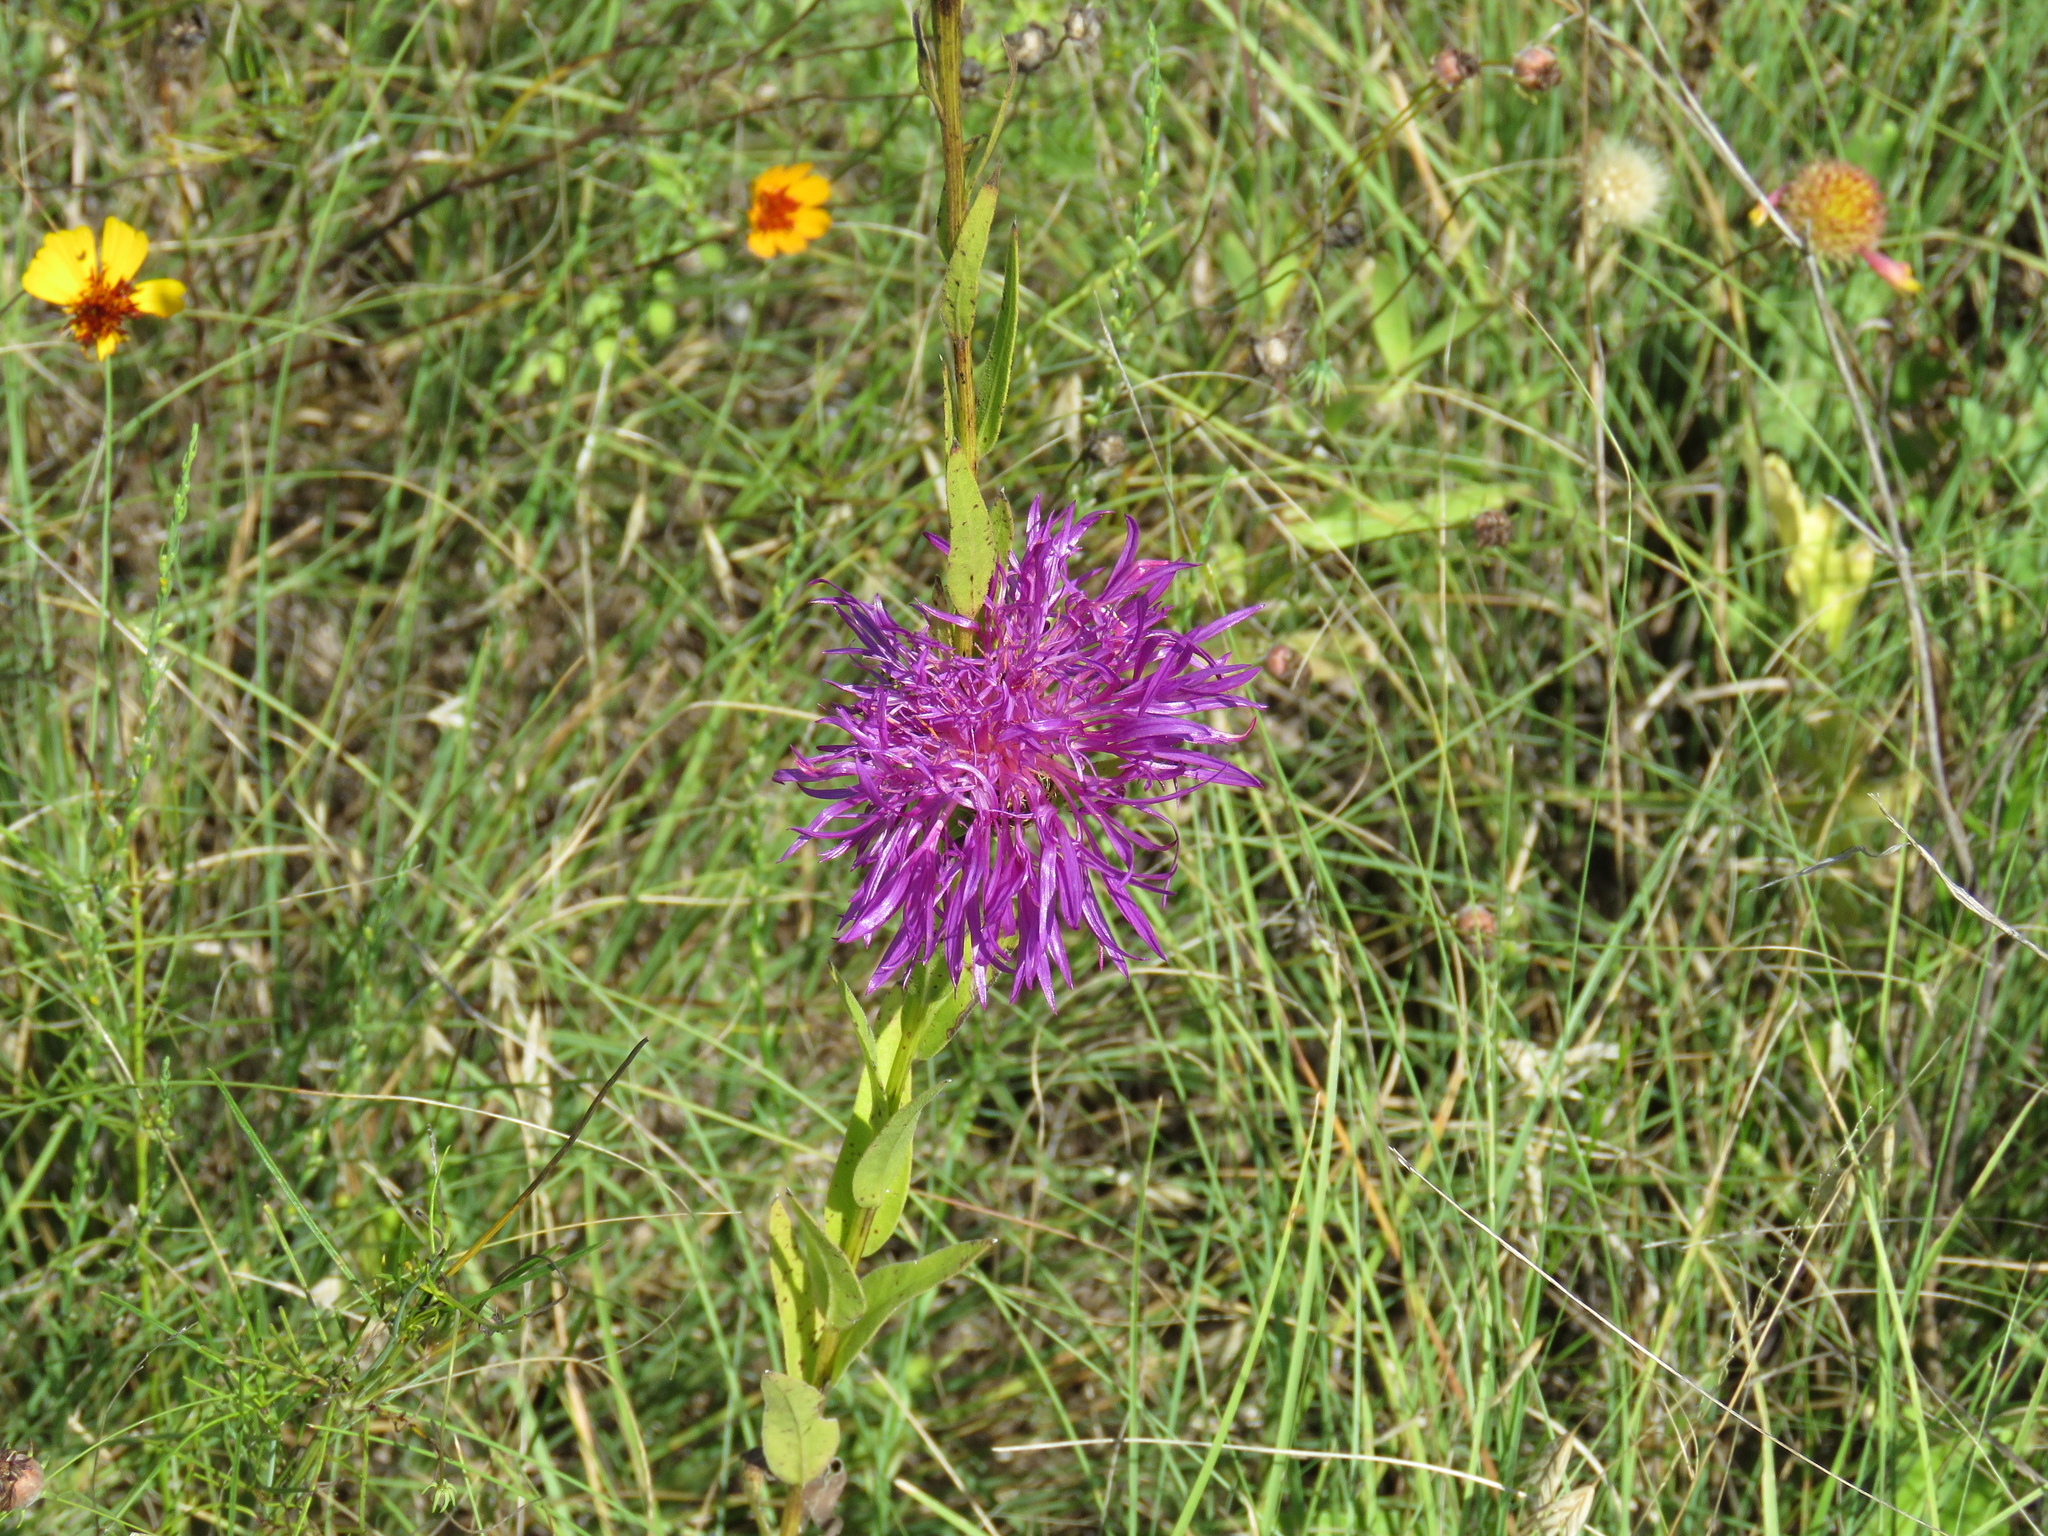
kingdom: Plantae
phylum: Tracheophyta
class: Magnoliopsida
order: Asterales
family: Asteraceae
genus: Plectocephalus
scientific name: Plectocephalus americanus
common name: American basket-flower
